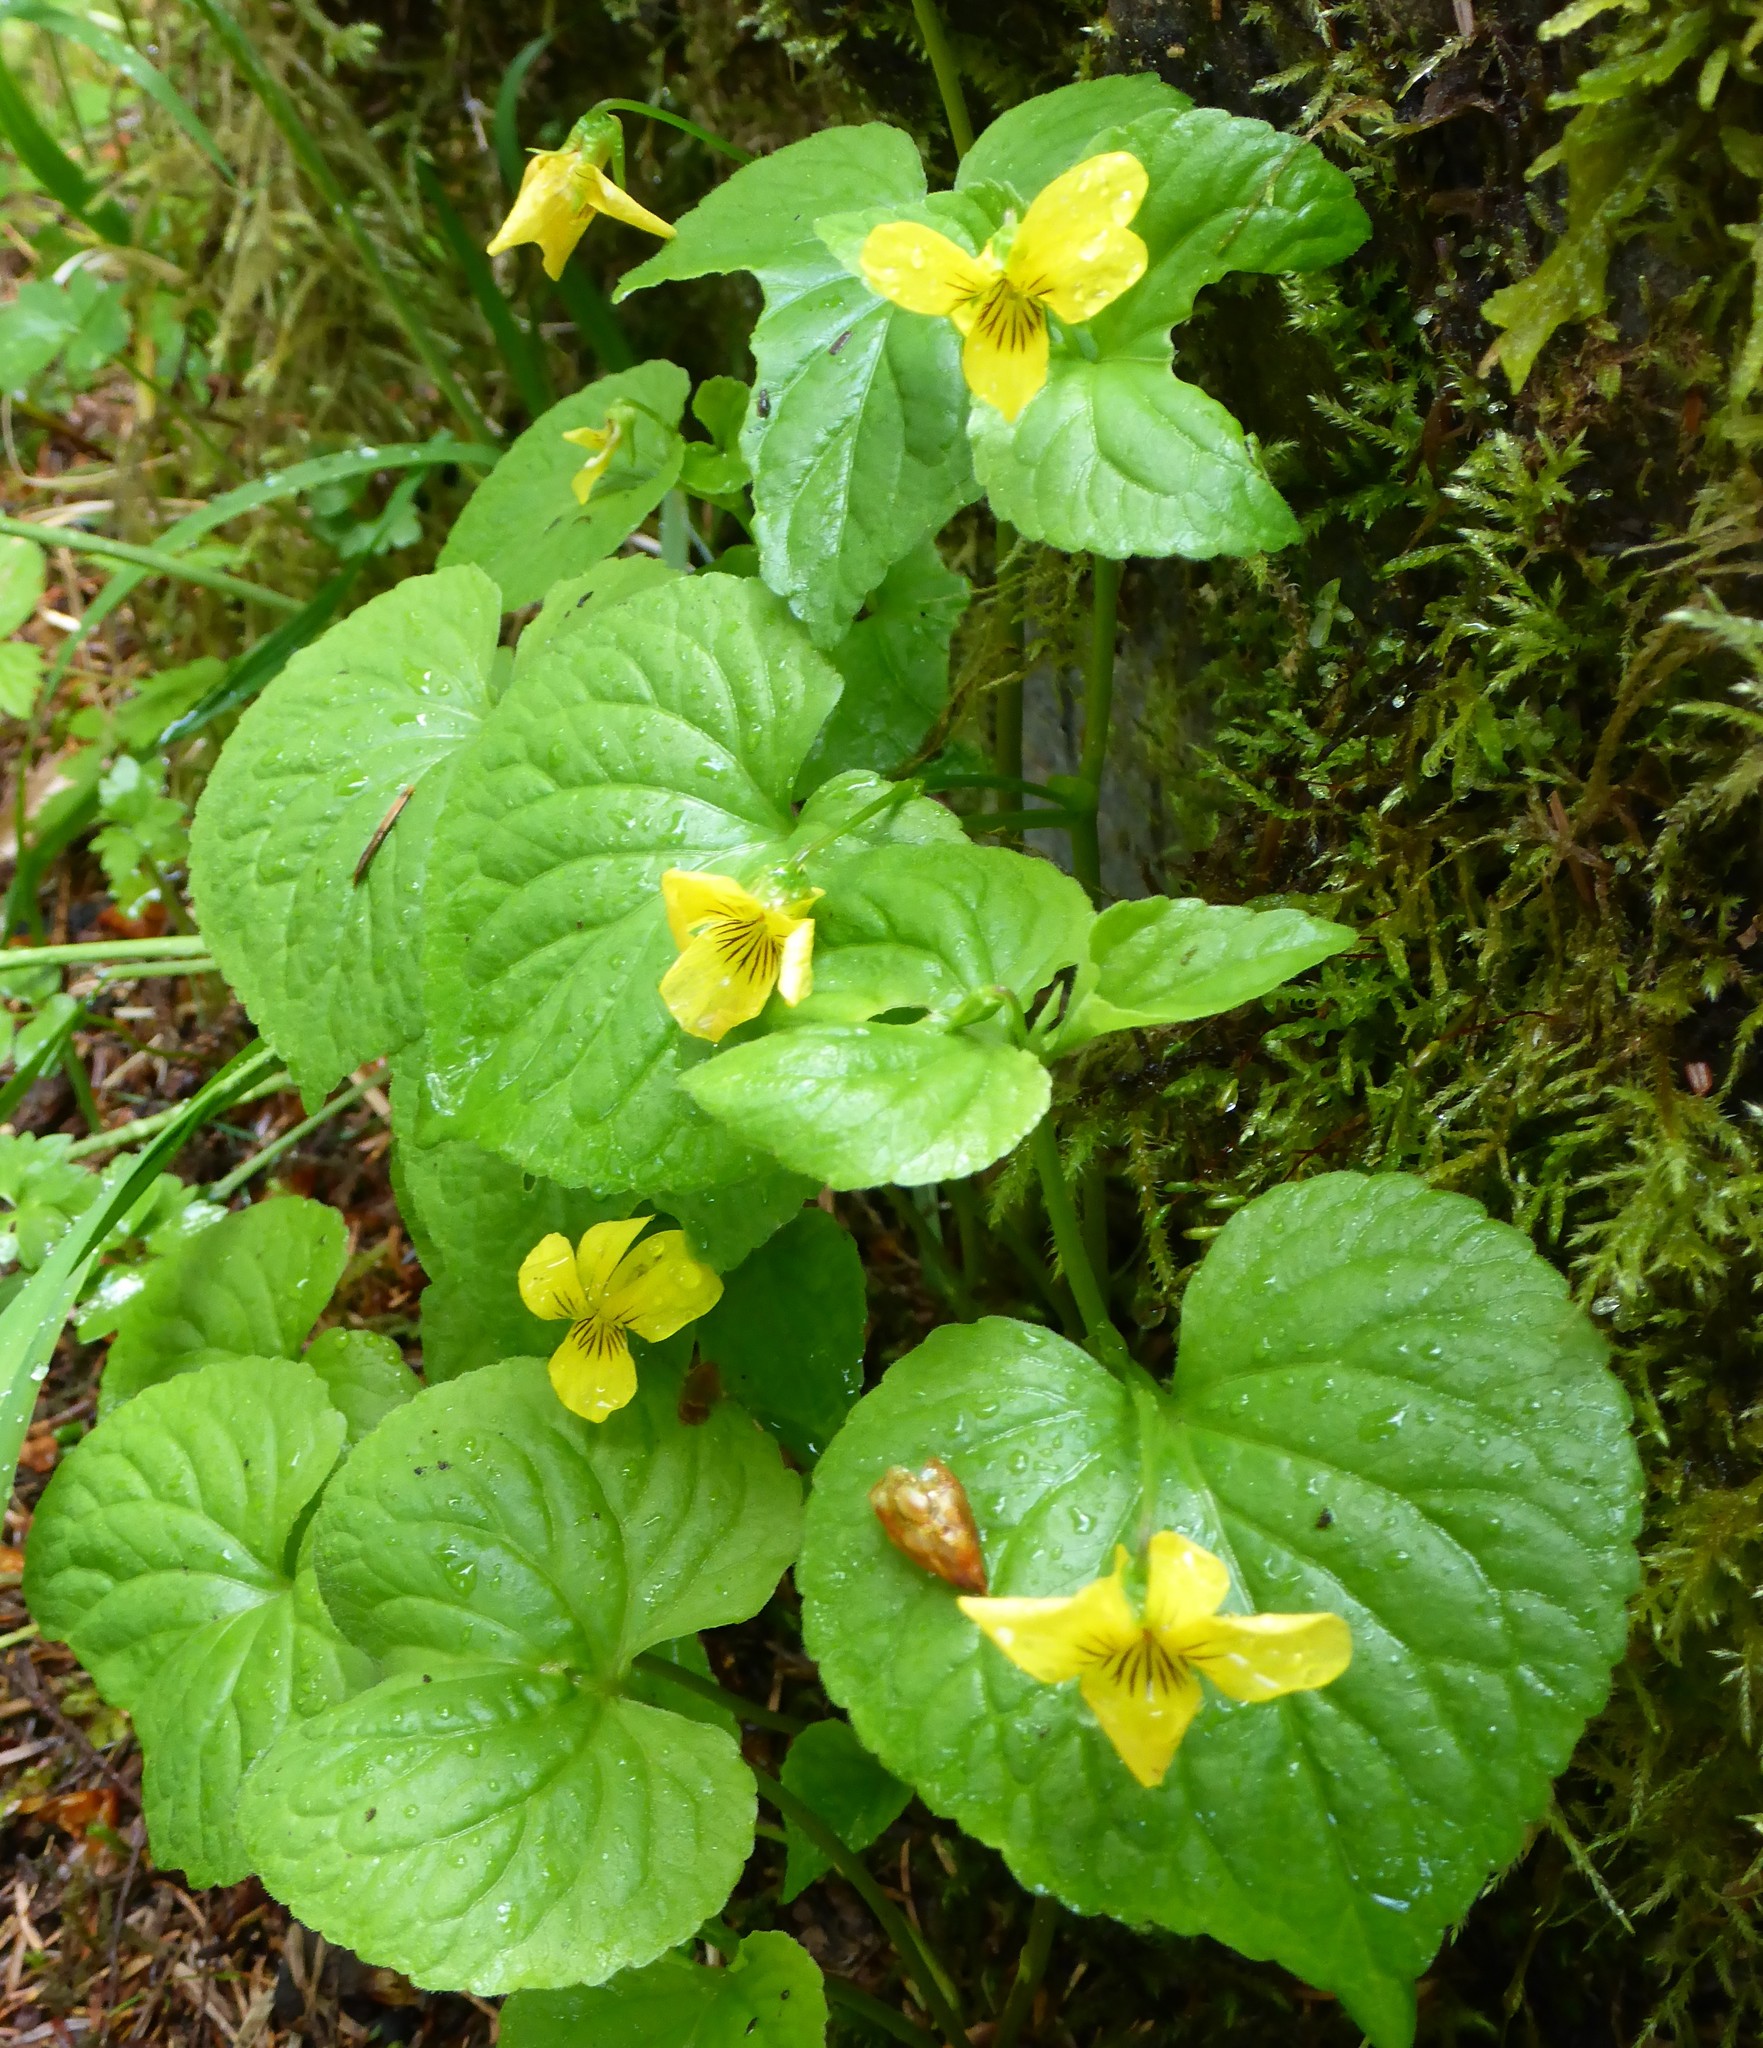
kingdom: Plantae
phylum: Tracheophyta
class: Magnoliopsida
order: Malpighiales
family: Violaceae
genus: Viola
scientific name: Viola glabella
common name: Stream violet
